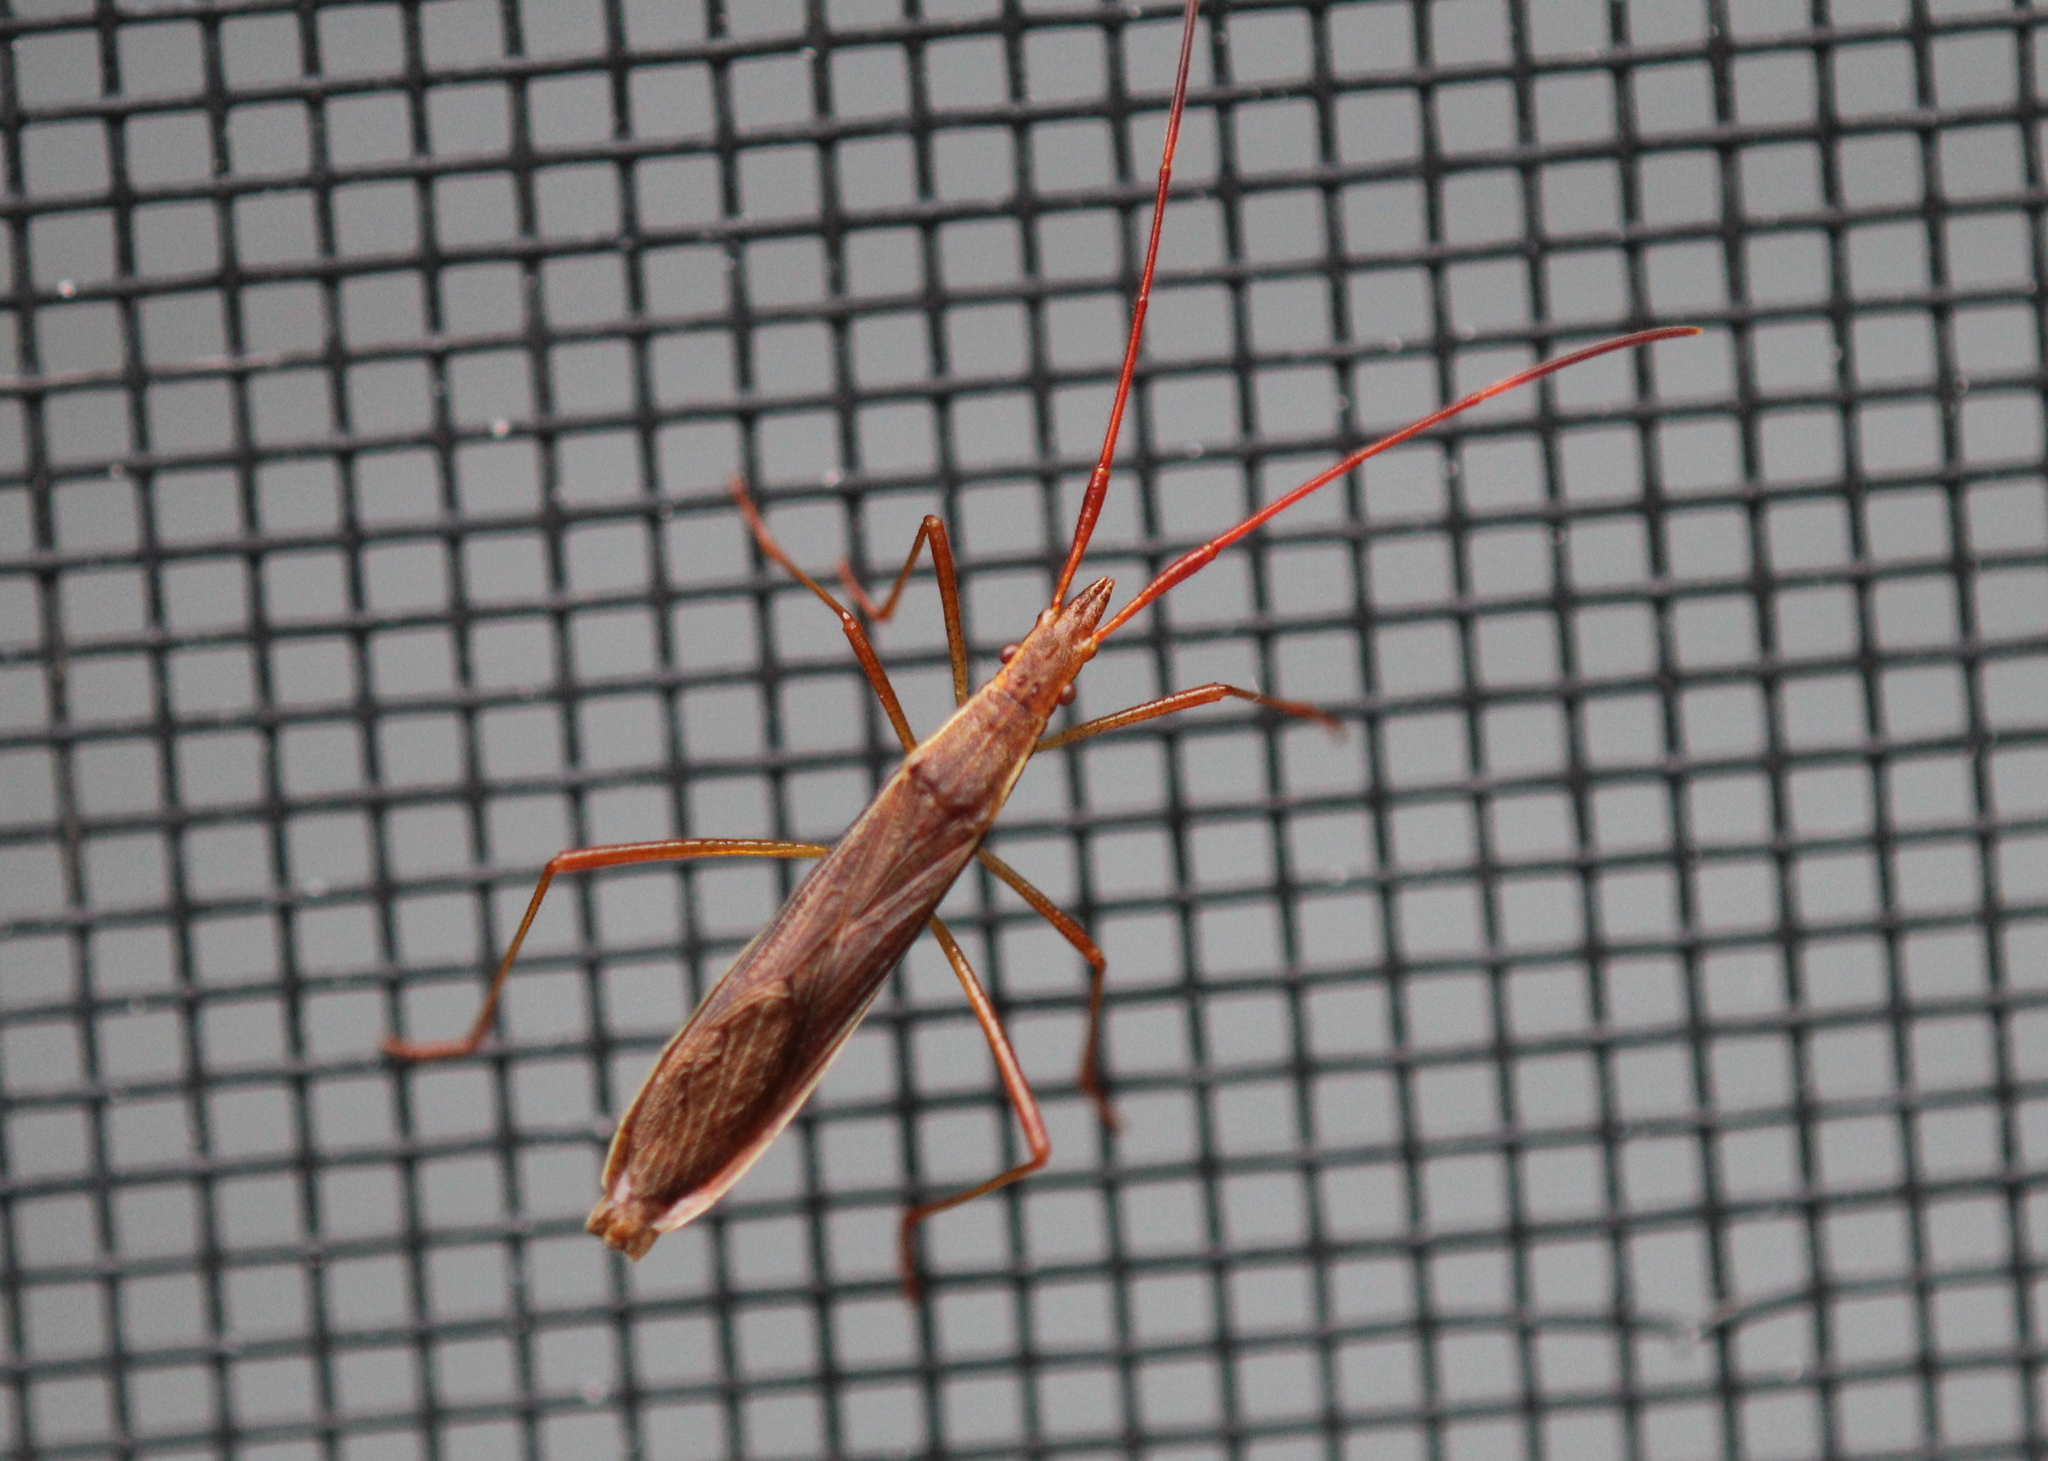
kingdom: Animalia
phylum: Arthropoda
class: Insecta
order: Hemiptera
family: Alydidae
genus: Protenor
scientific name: Protenor belfragei
